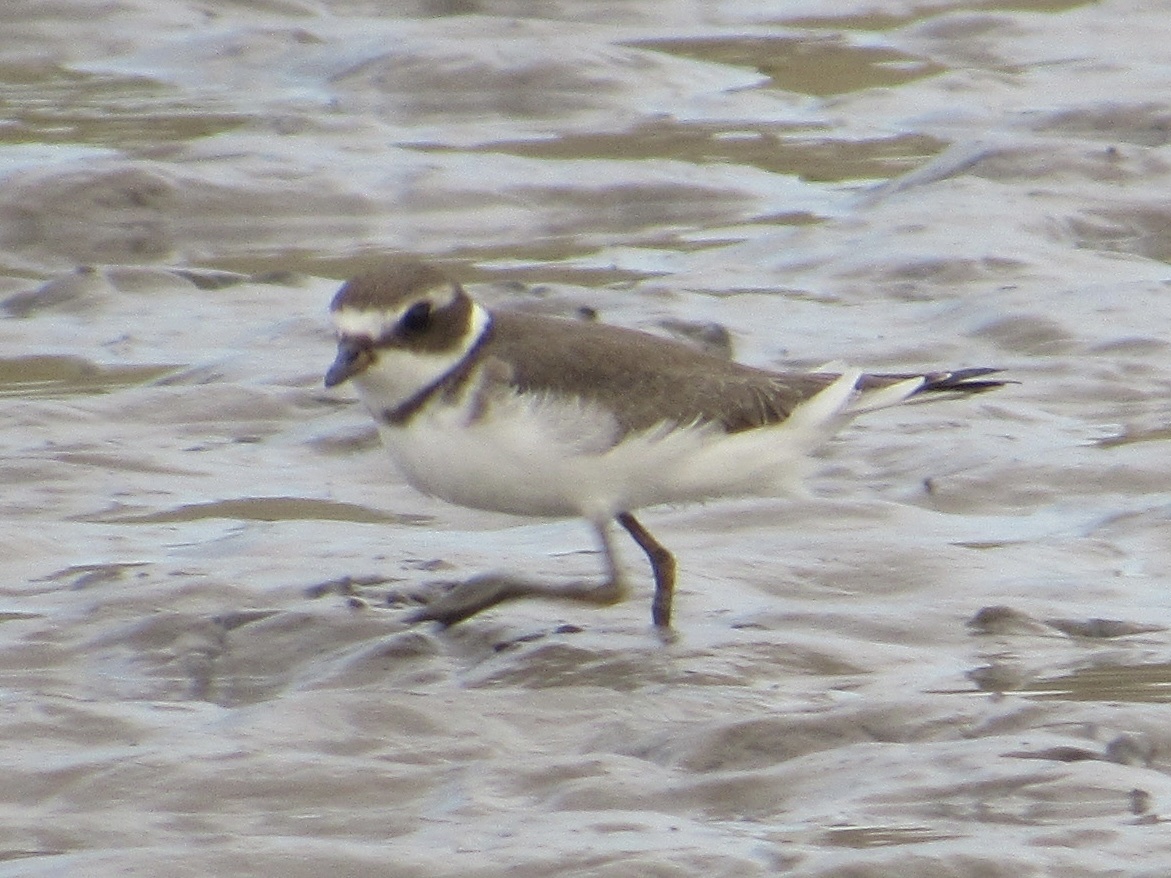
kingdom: Animalia
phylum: Chordata
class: Aves
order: Charadriiformes
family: Charadriidae
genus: Charadrius
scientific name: Charadrius semipalmatus
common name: Semipalmated plover
